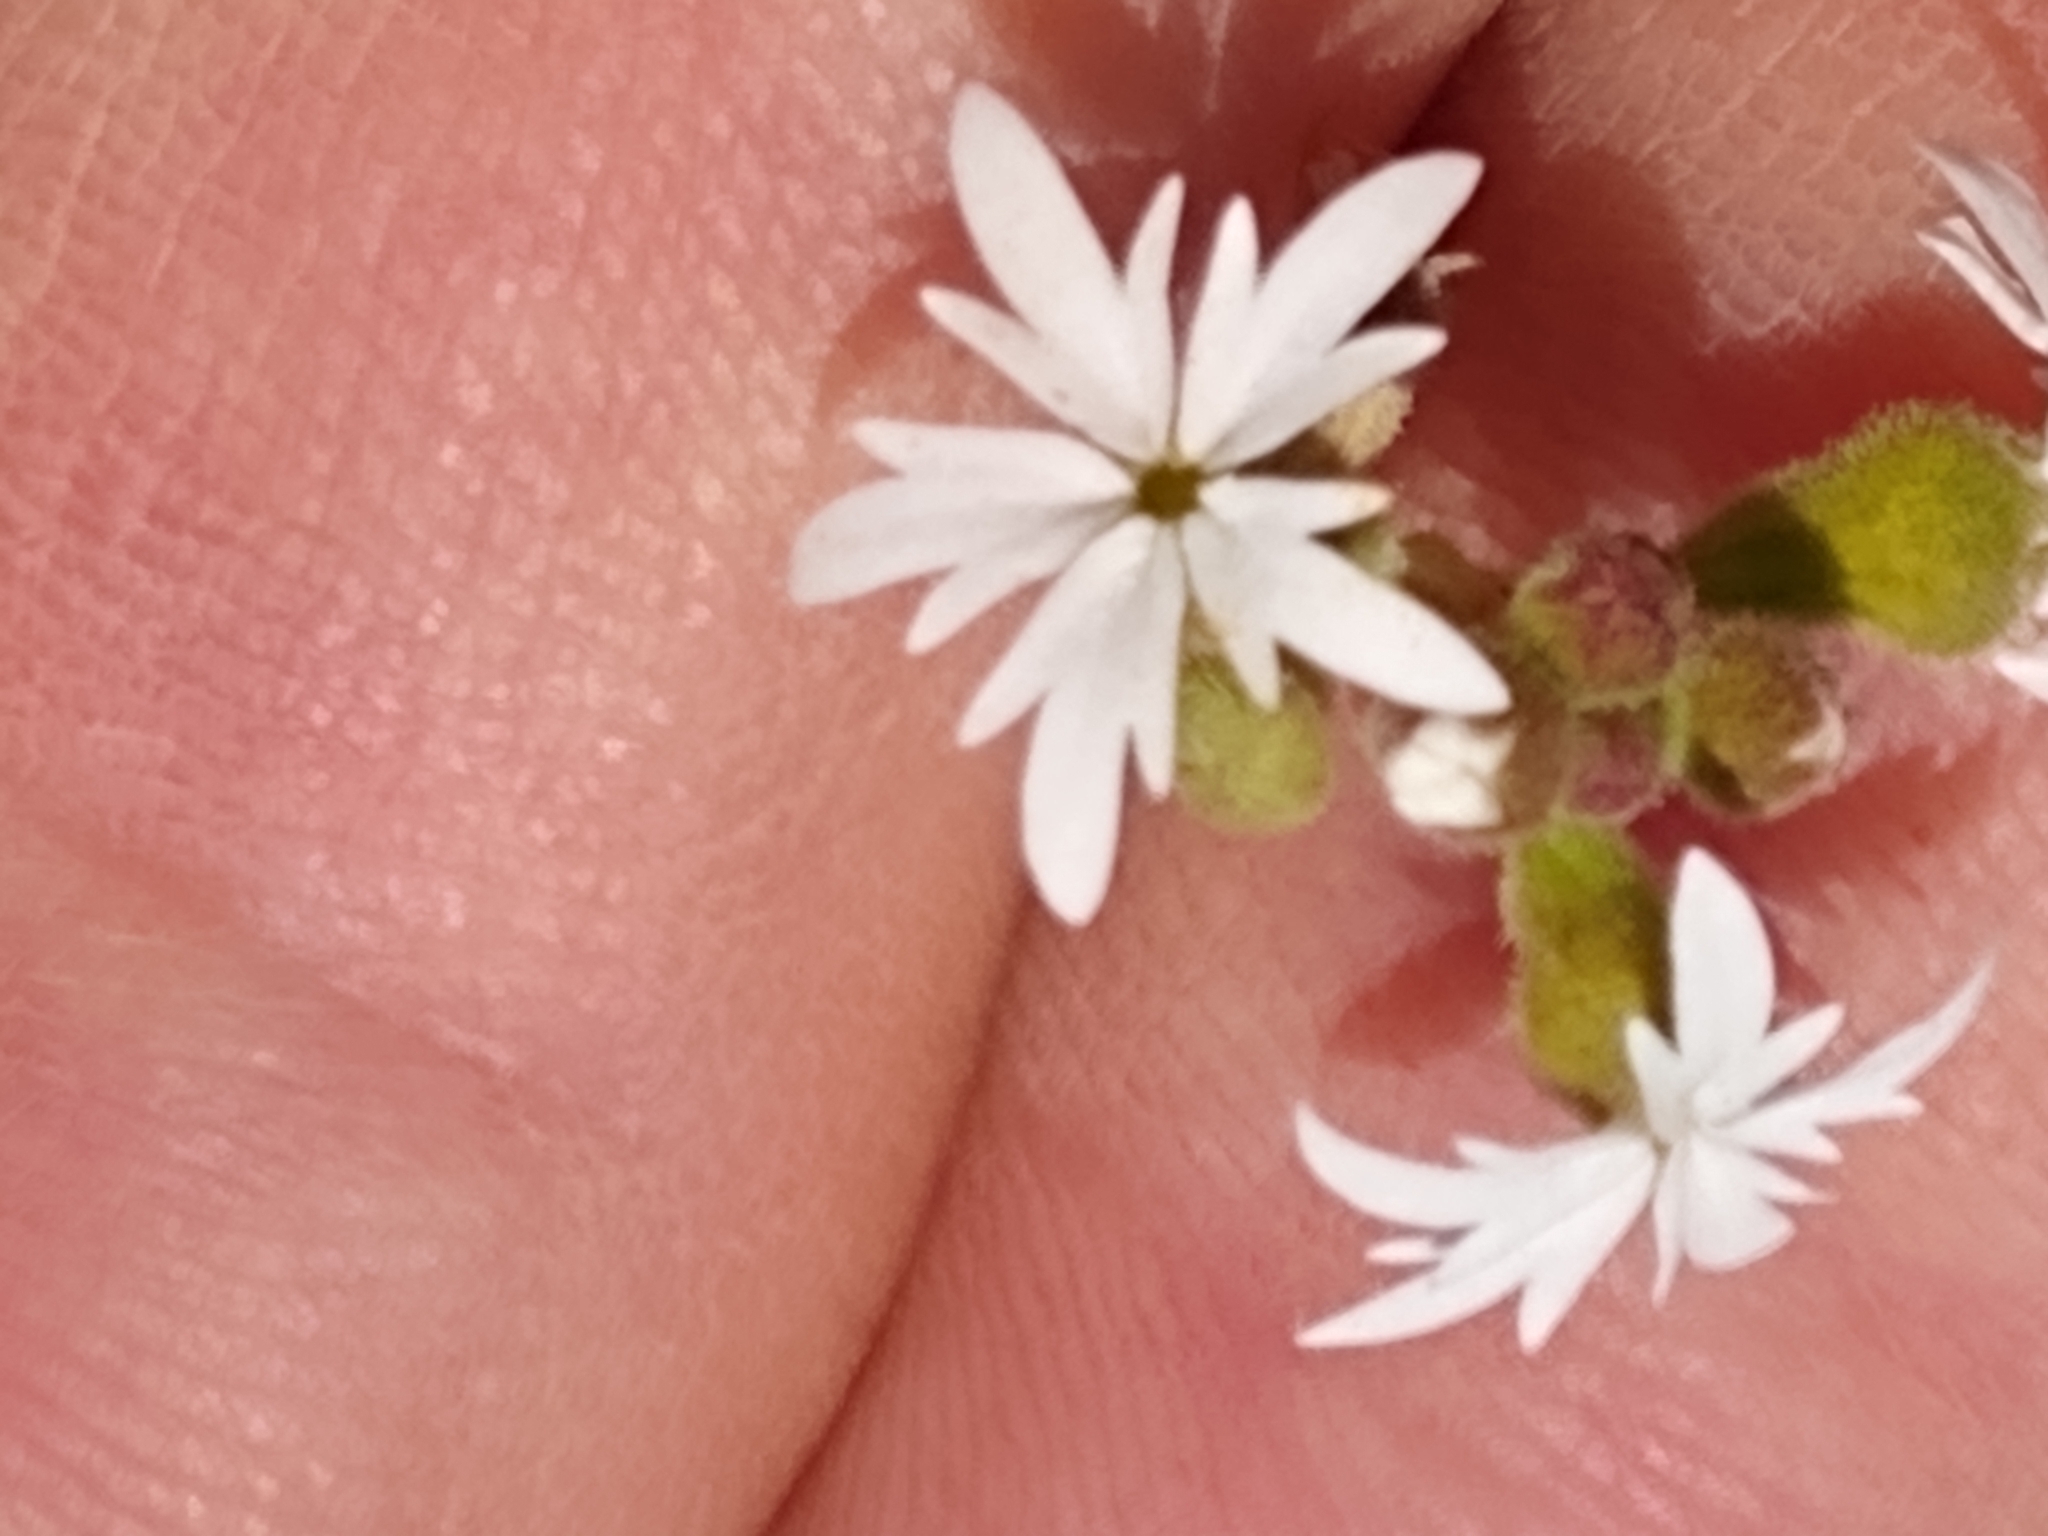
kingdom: Plantae
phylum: Tracheophyta
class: Magnoliopsida
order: Saxifragales
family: Saxifragaceae
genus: Lithophragma
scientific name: Lithophragma parviflorum
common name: Small-flowered fringe-cup
